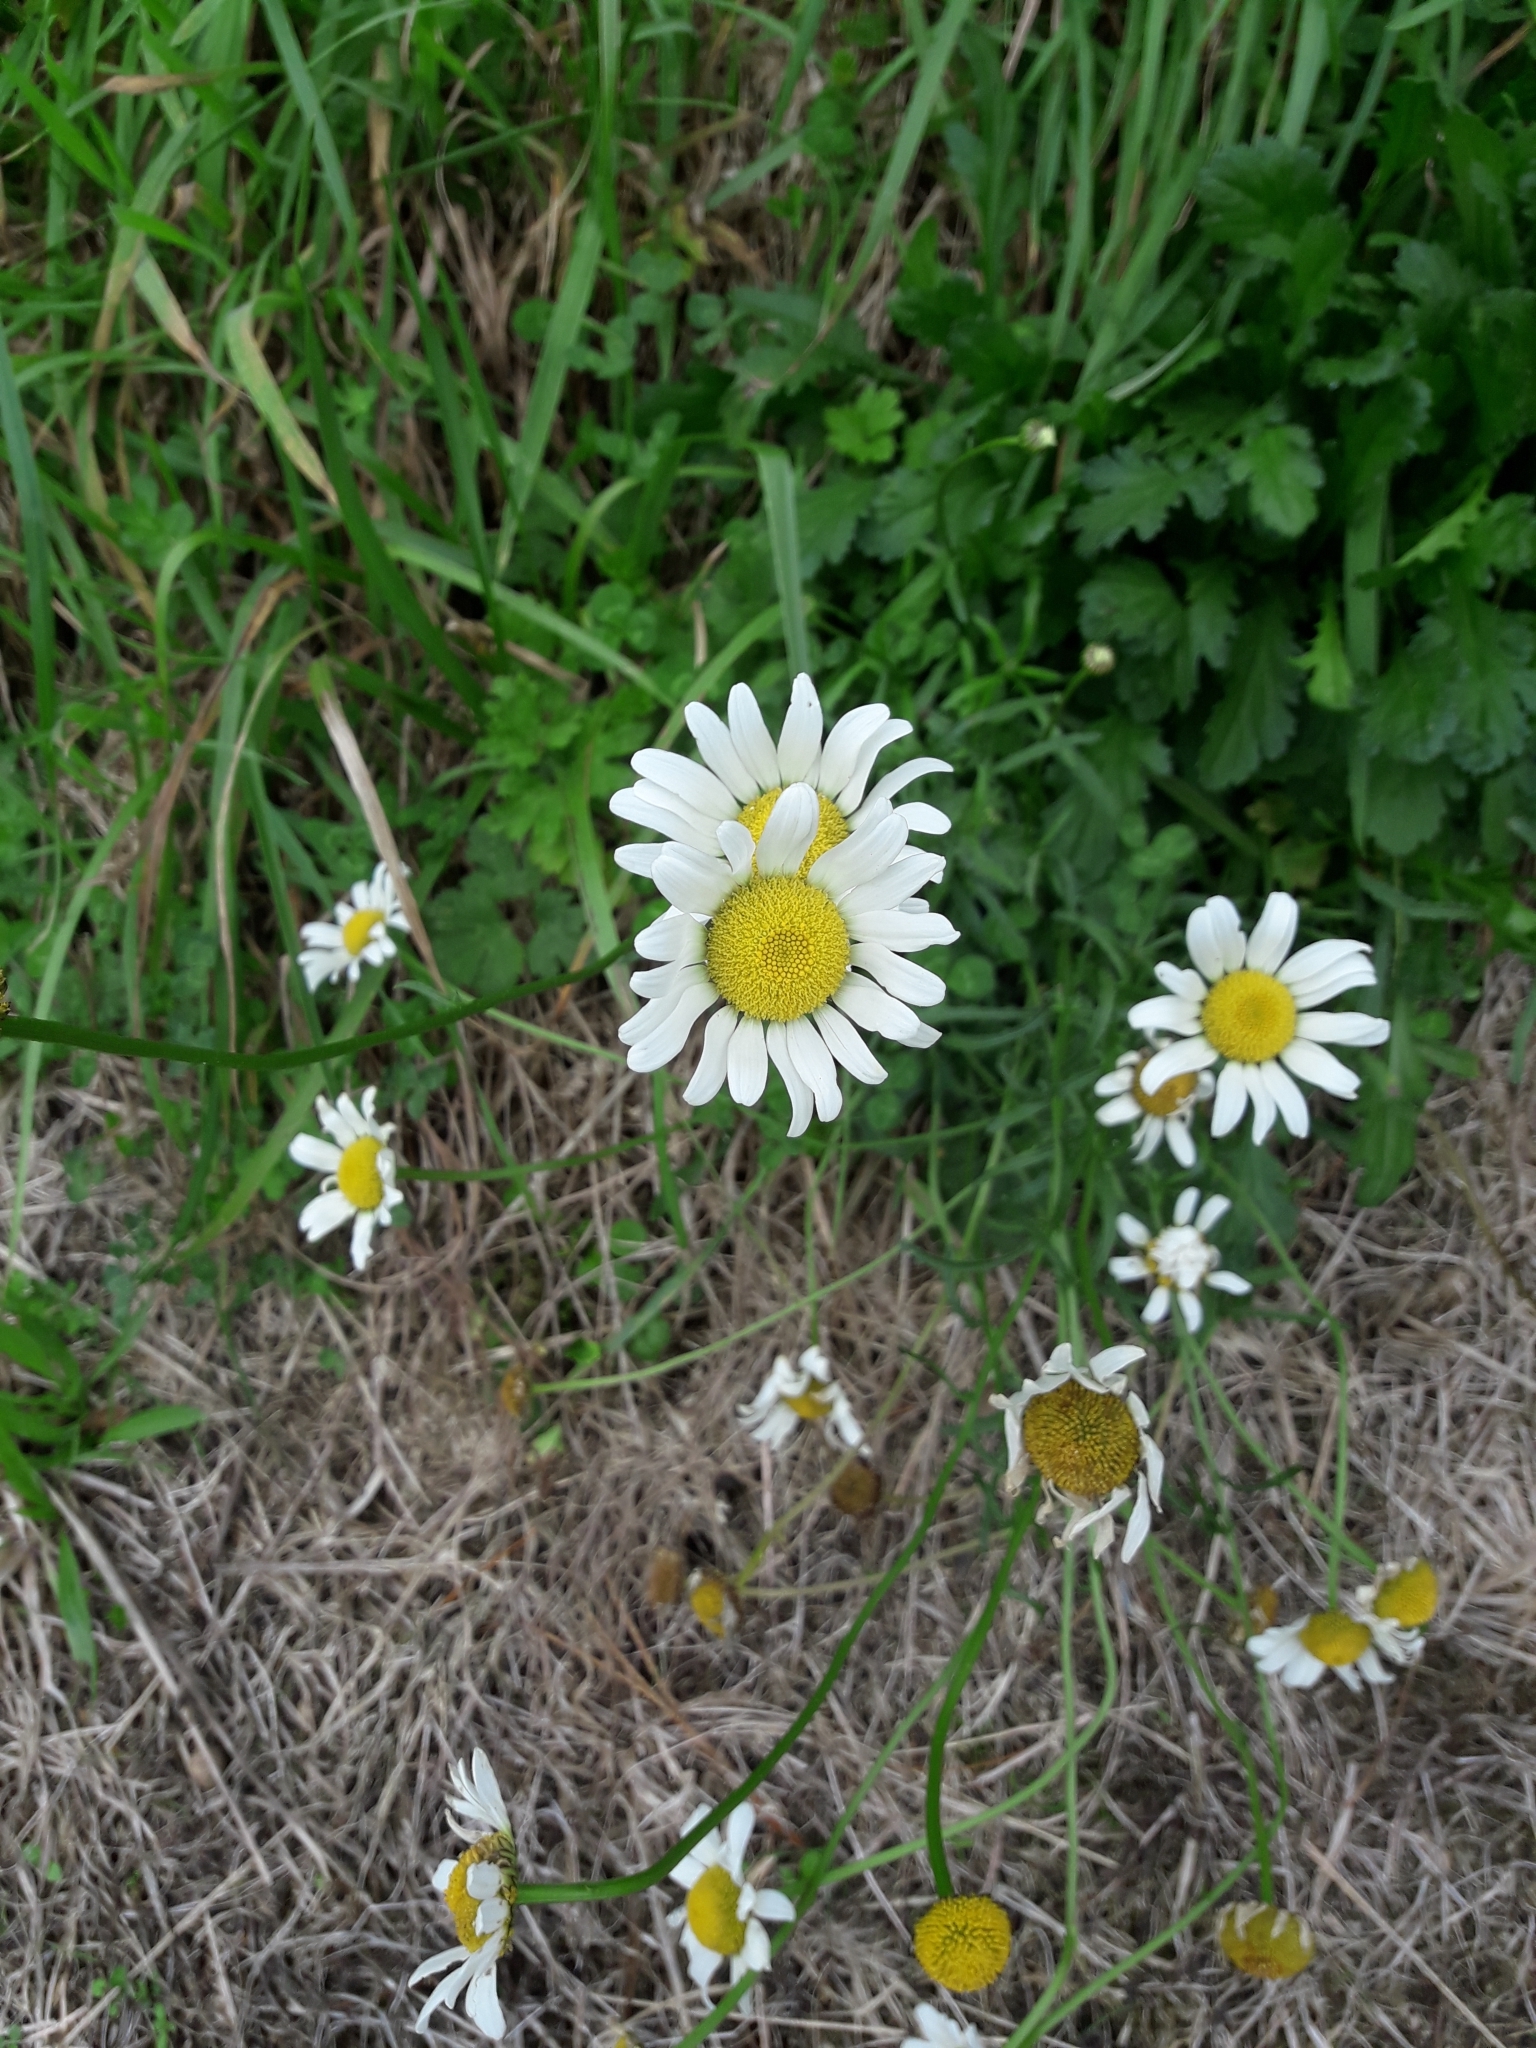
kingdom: Plantae
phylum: Tracheophyta
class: Magnoliopsida
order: Asterales
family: Asteraceae
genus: Leucanthemum
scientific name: Leucanthemum vulgare
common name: Oxeye daisy
